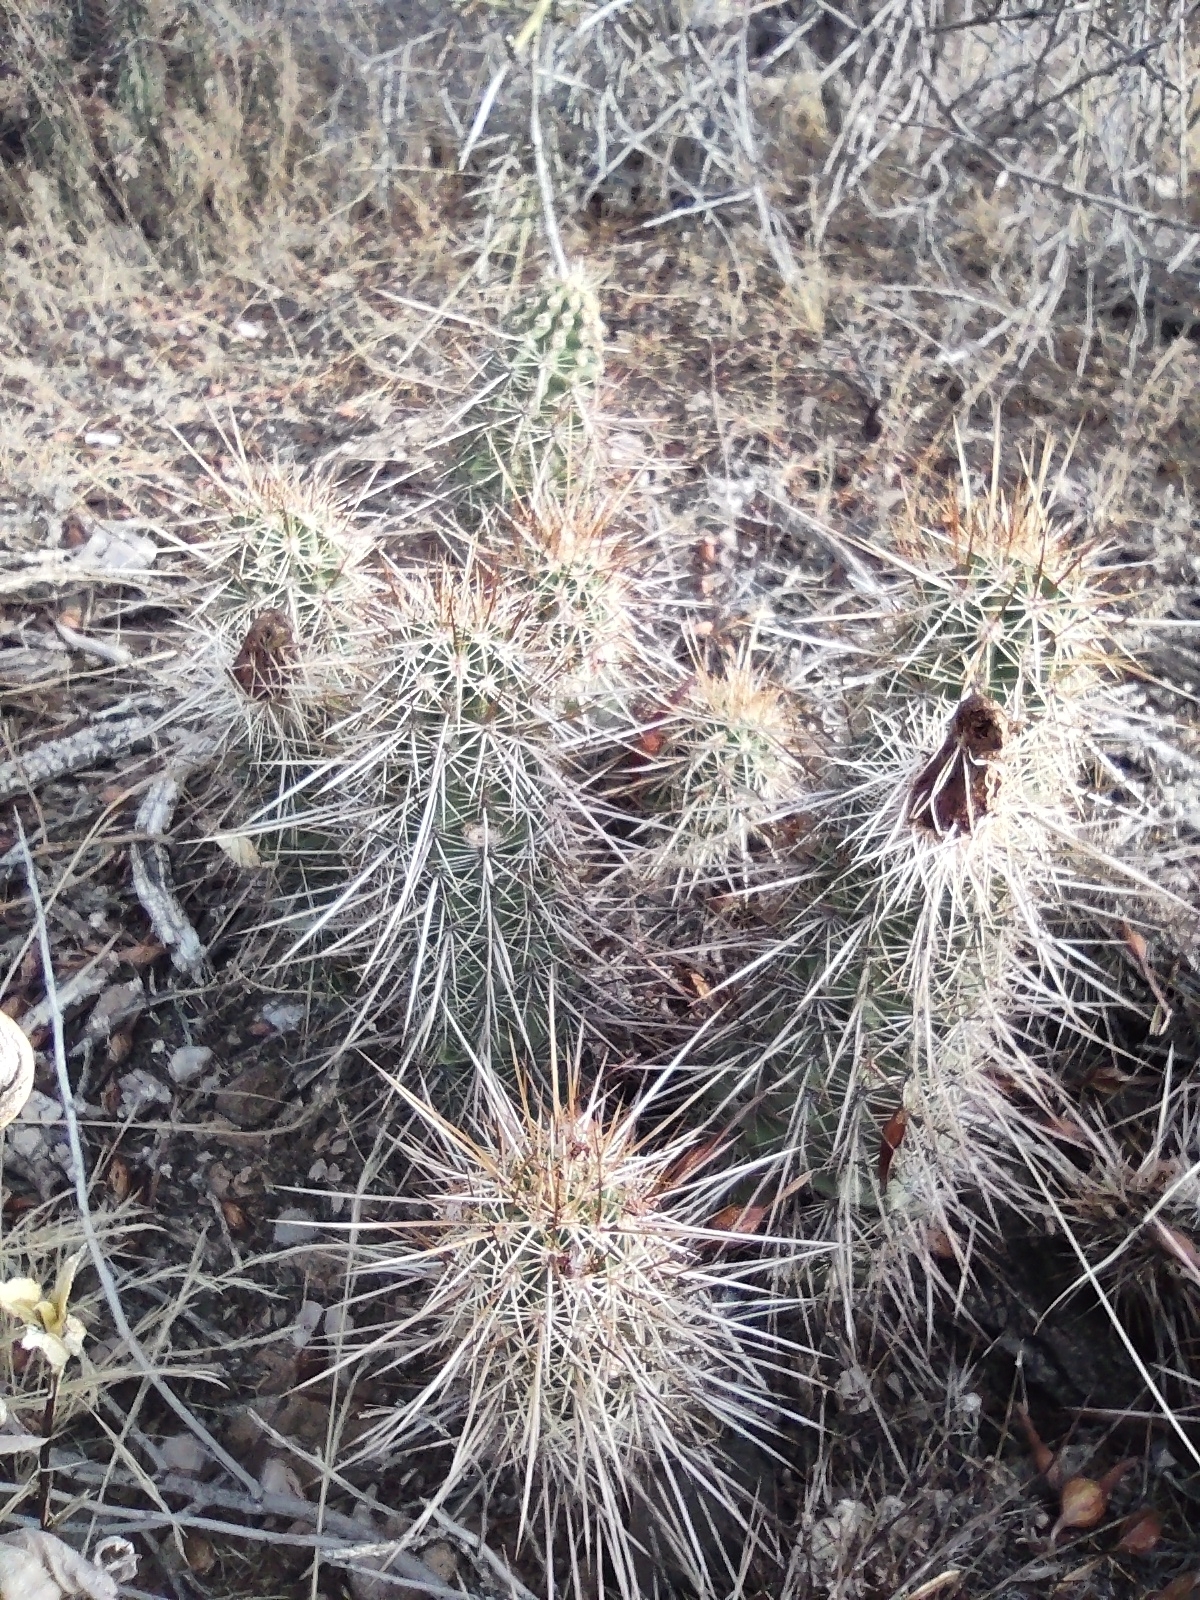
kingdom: Plantae
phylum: Tracheophyta
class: Magnoliopsida
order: Caryophyllales
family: Cactaceae
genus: Echinocereus
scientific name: Echinocereus fasciculatus
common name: Bundle hedgehog
